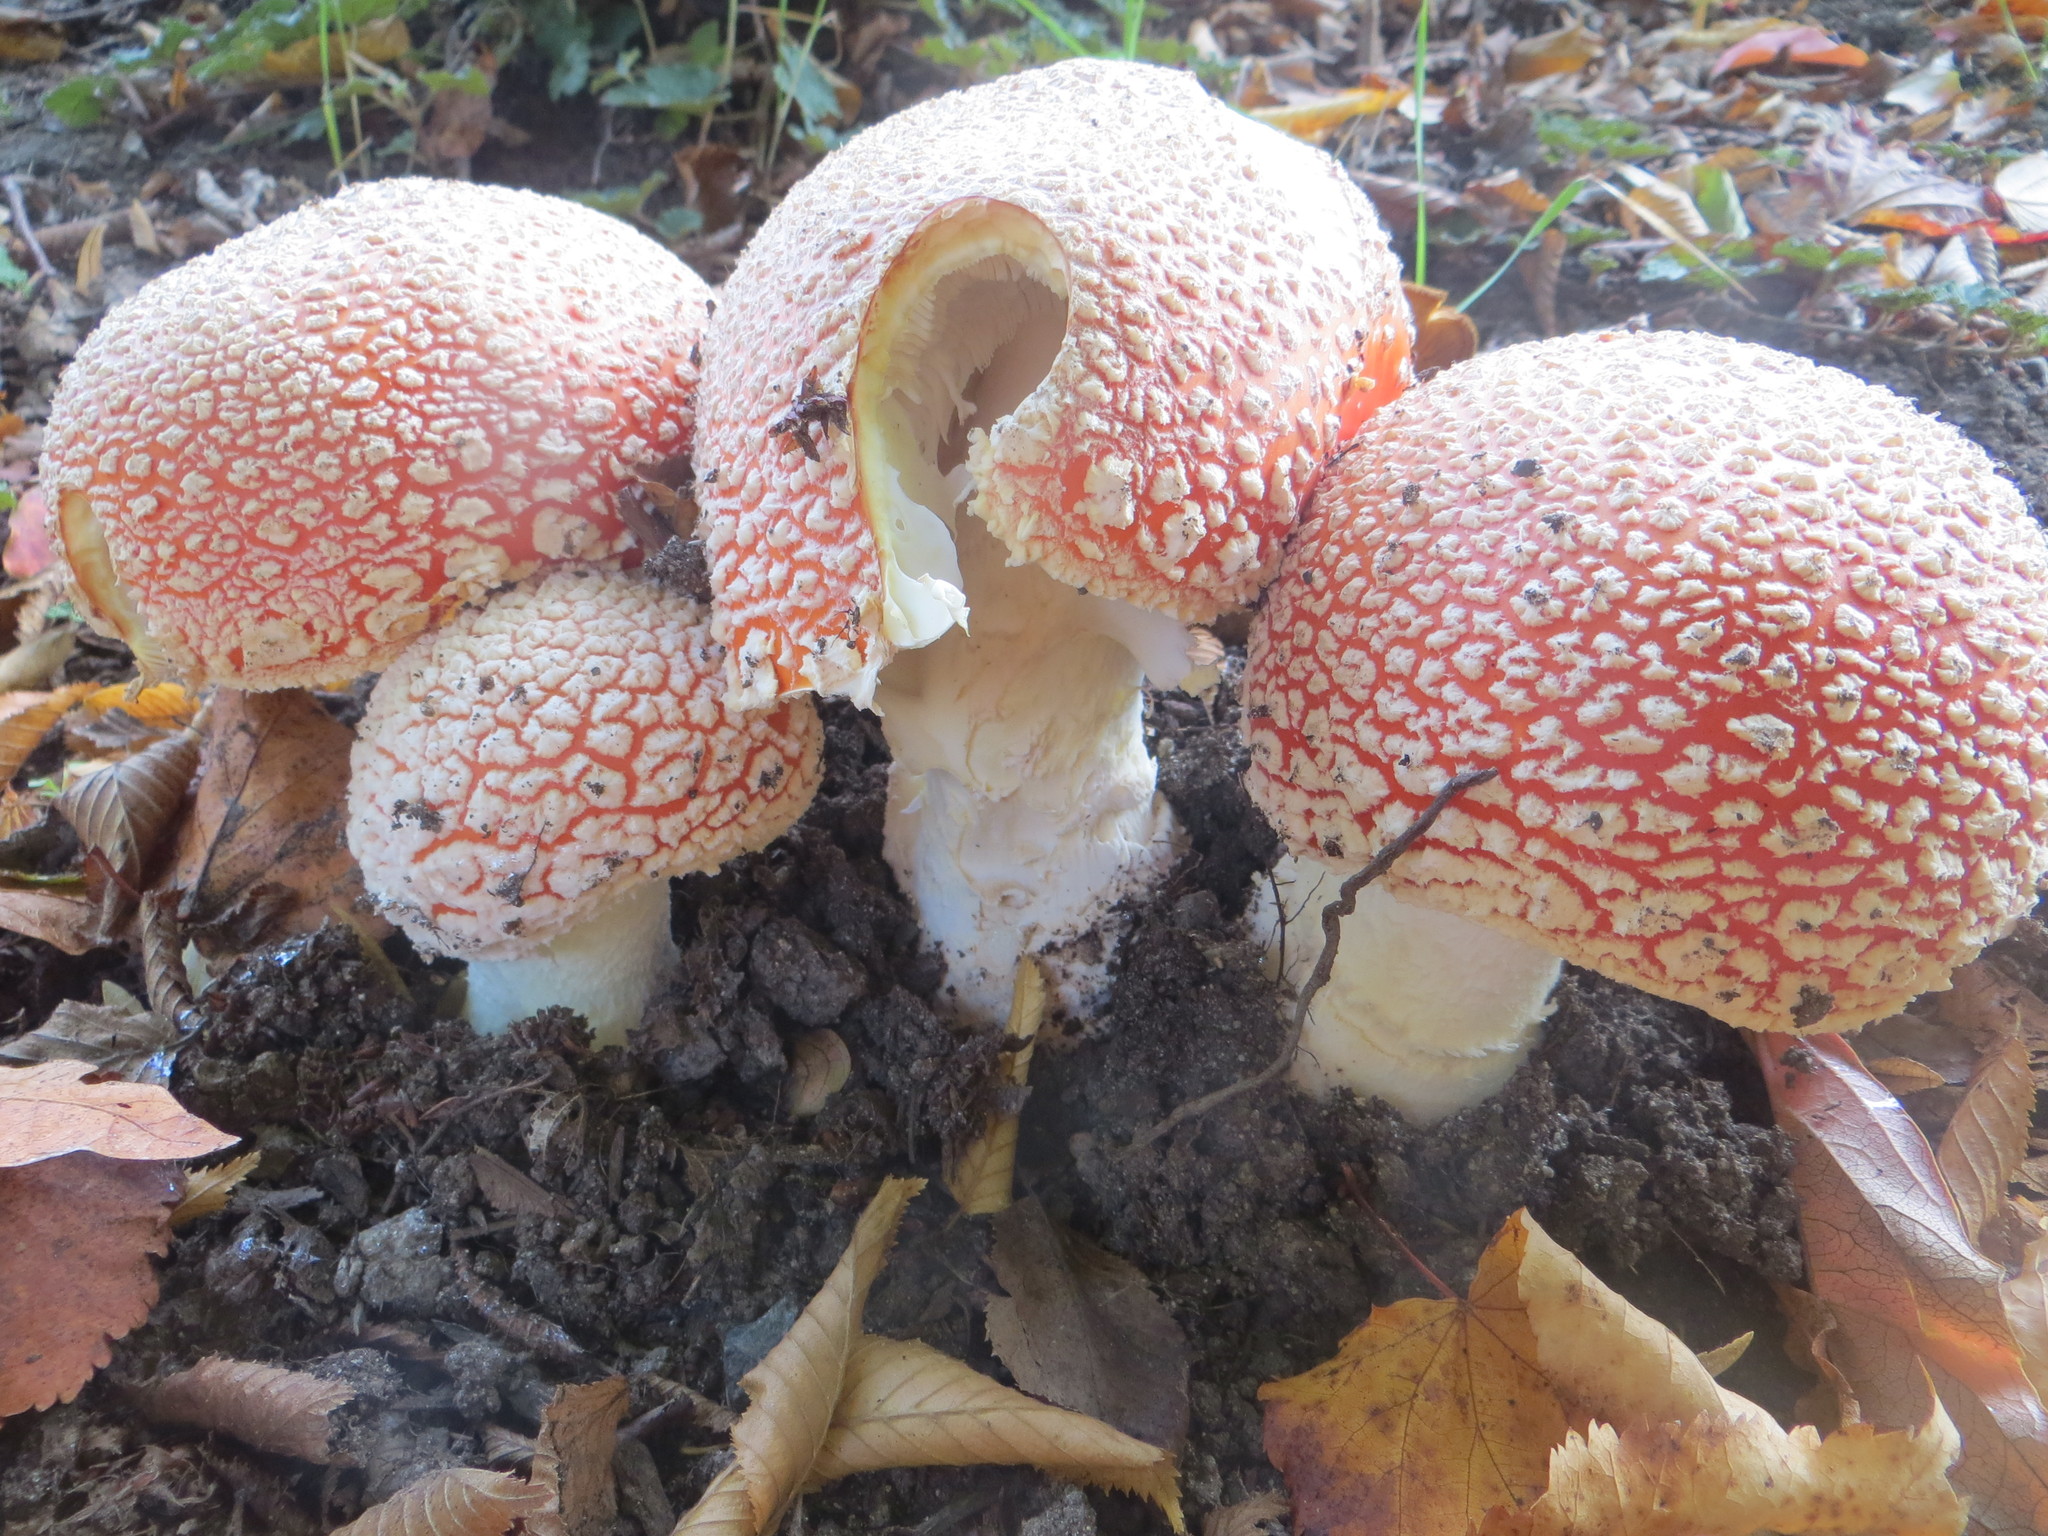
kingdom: Fungi
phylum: Basidiomycota
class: Agaricomycetes
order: Agaricales
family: Amanitaceae
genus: Amanita
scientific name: Amanita muscaria
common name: Fly agaric
